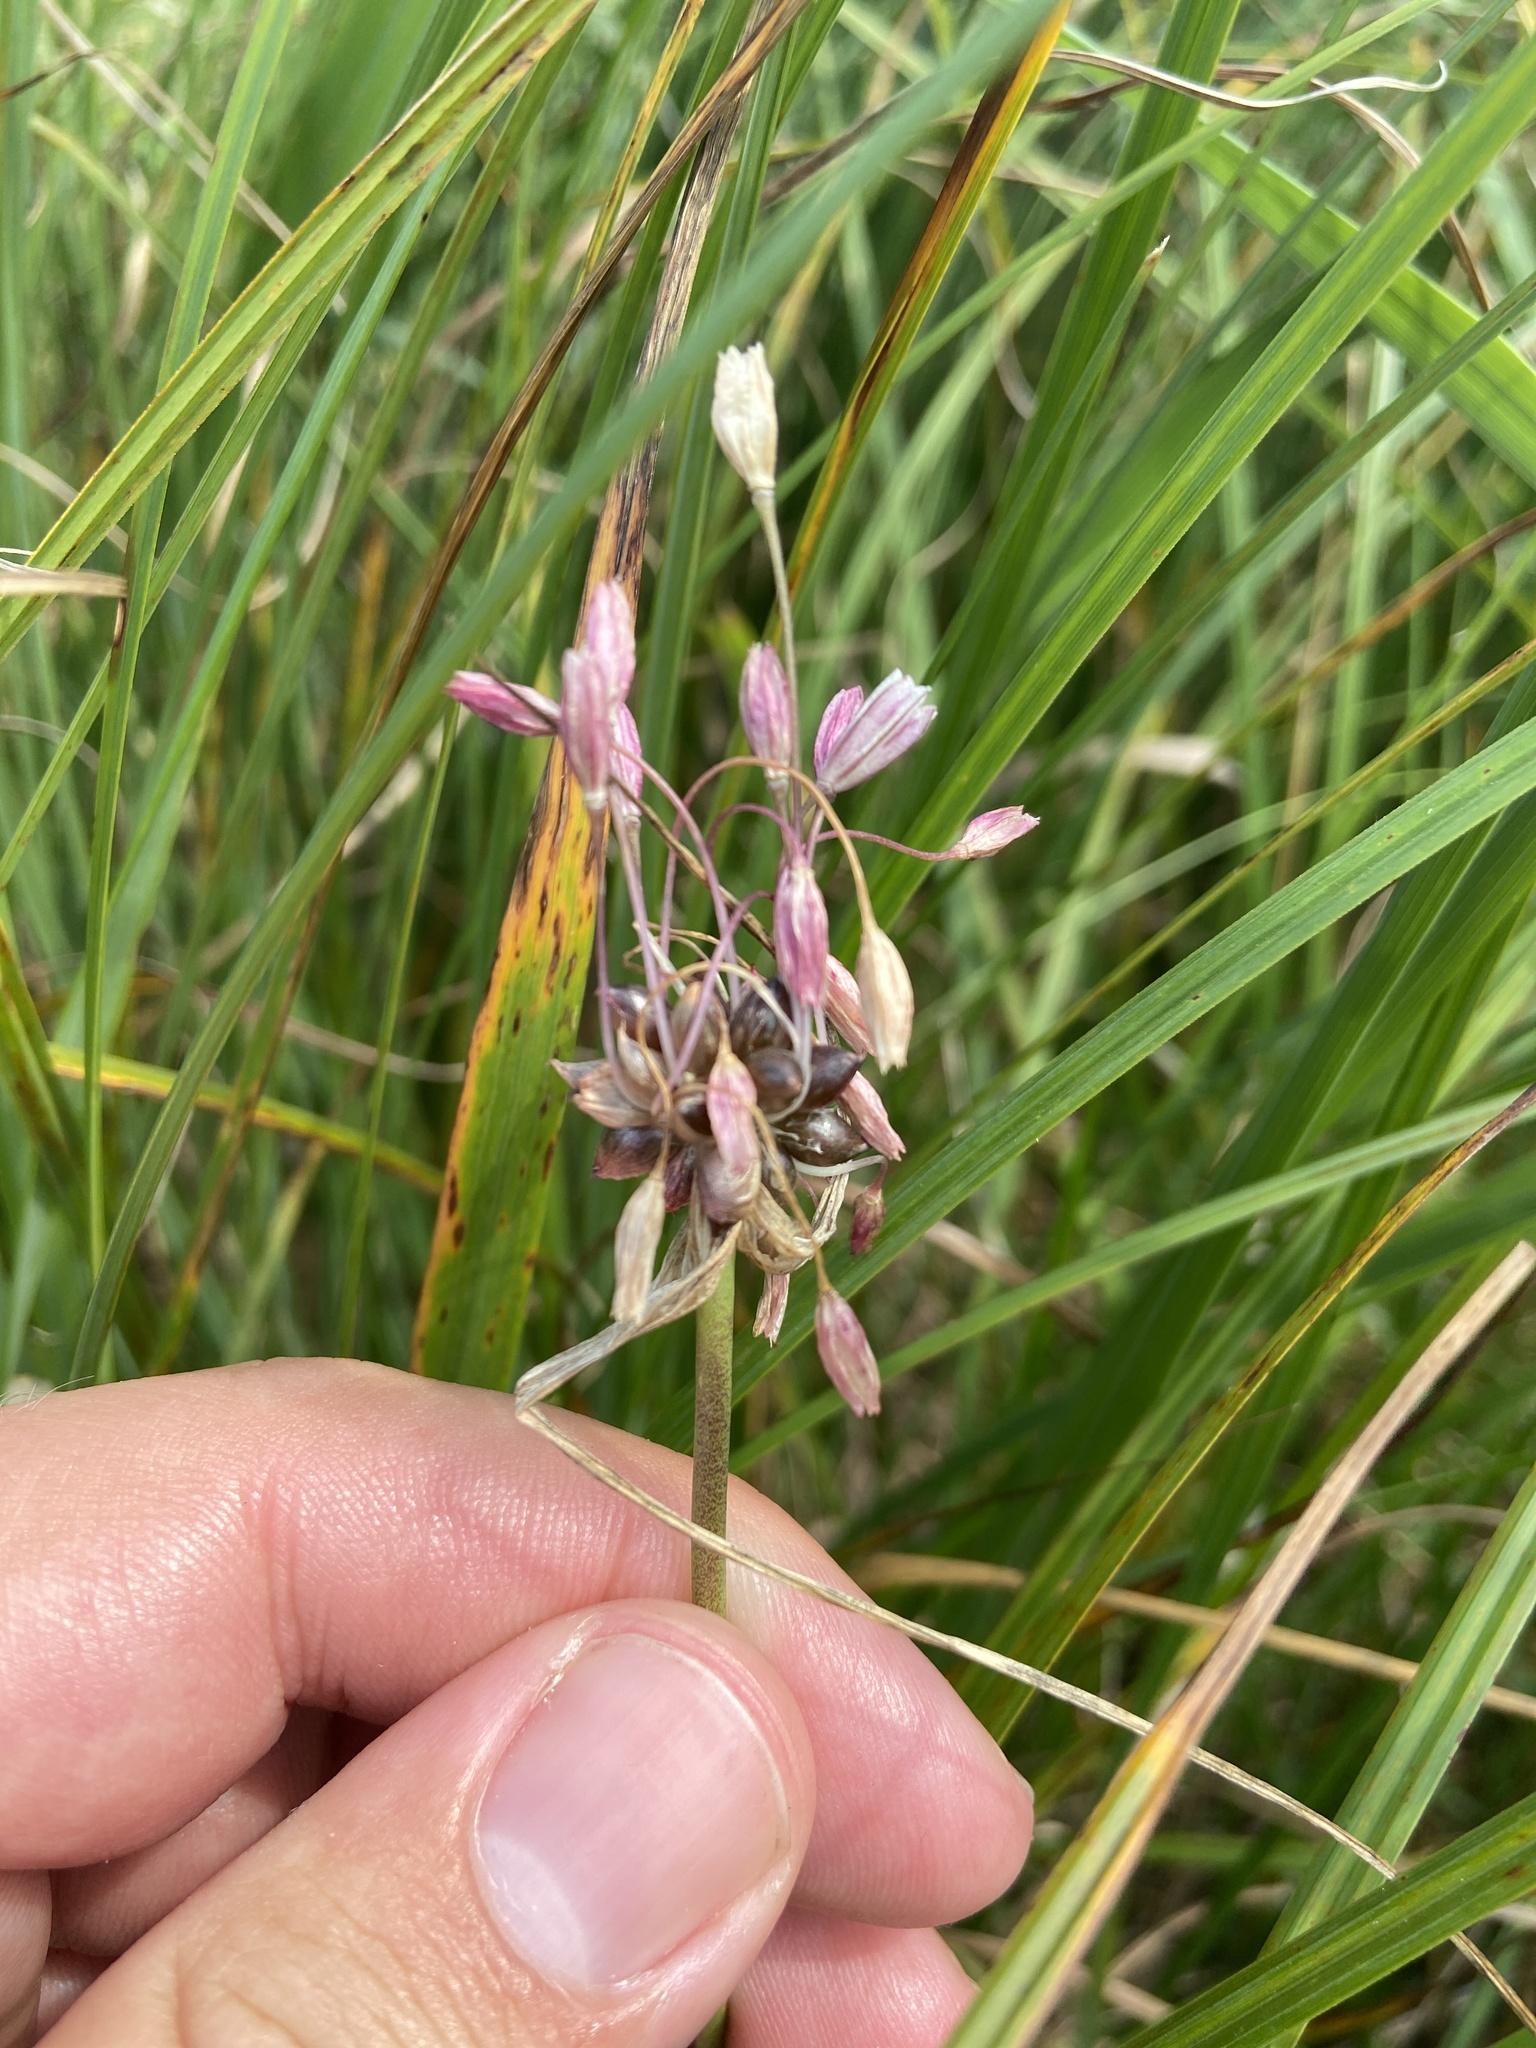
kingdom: Plantae
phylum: Tracheophyta
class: Liliopsida
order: Asparagales
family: Amaryllidaceae
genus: Allium
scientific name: Allium oleraceum
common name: Field garlic
